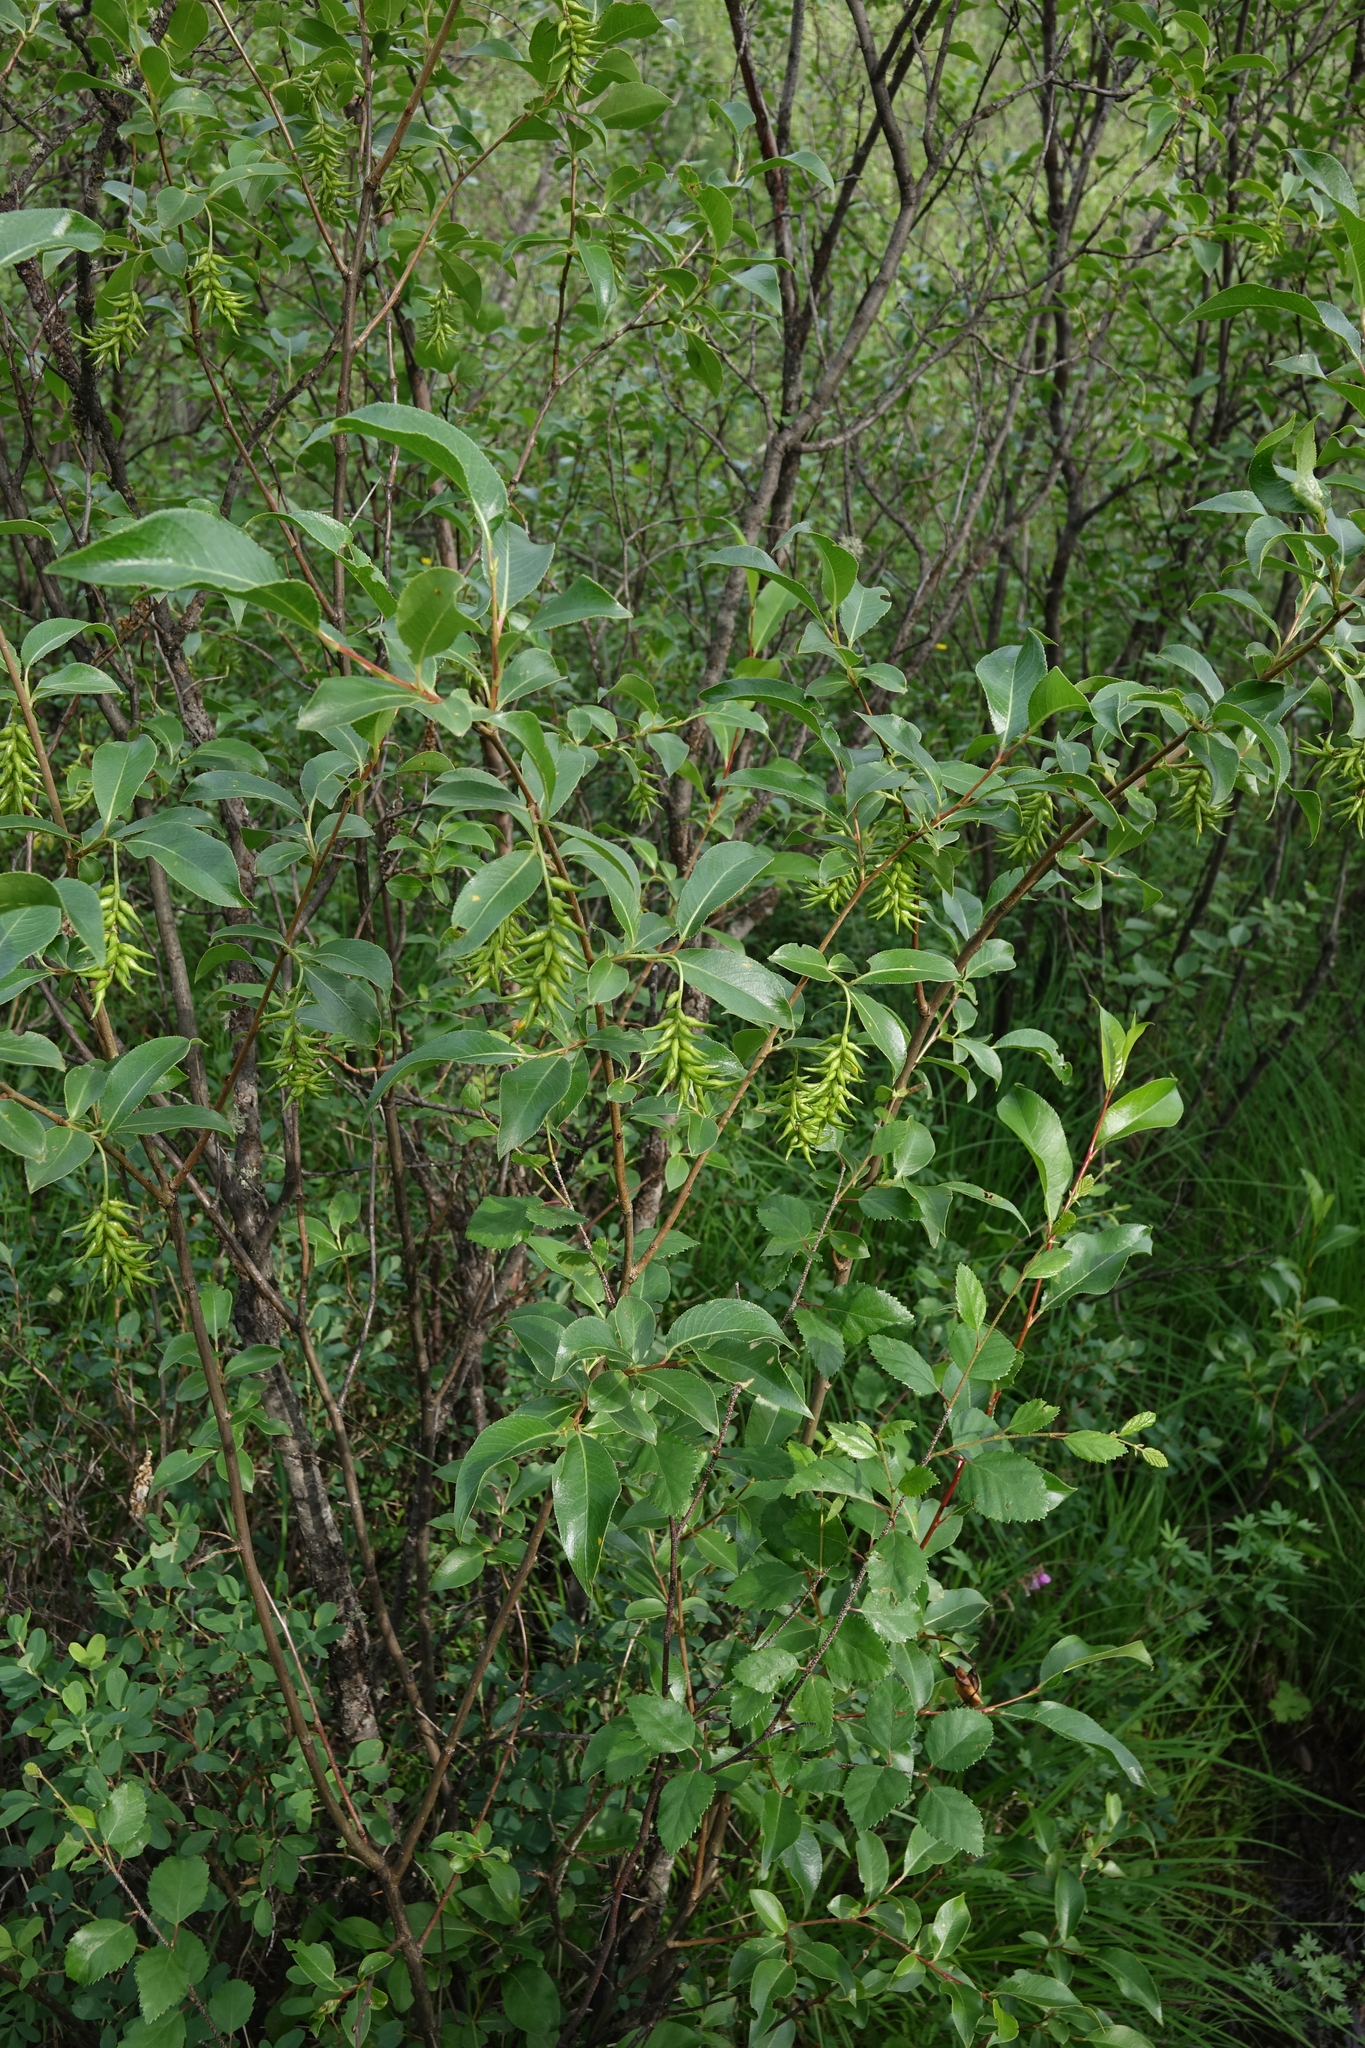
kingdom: Plantae
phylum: Tracheophyta
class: Magnoliopsida
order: Malpighiales
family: Salicaceae
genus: Salix
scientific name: Salix pseudopentandra
